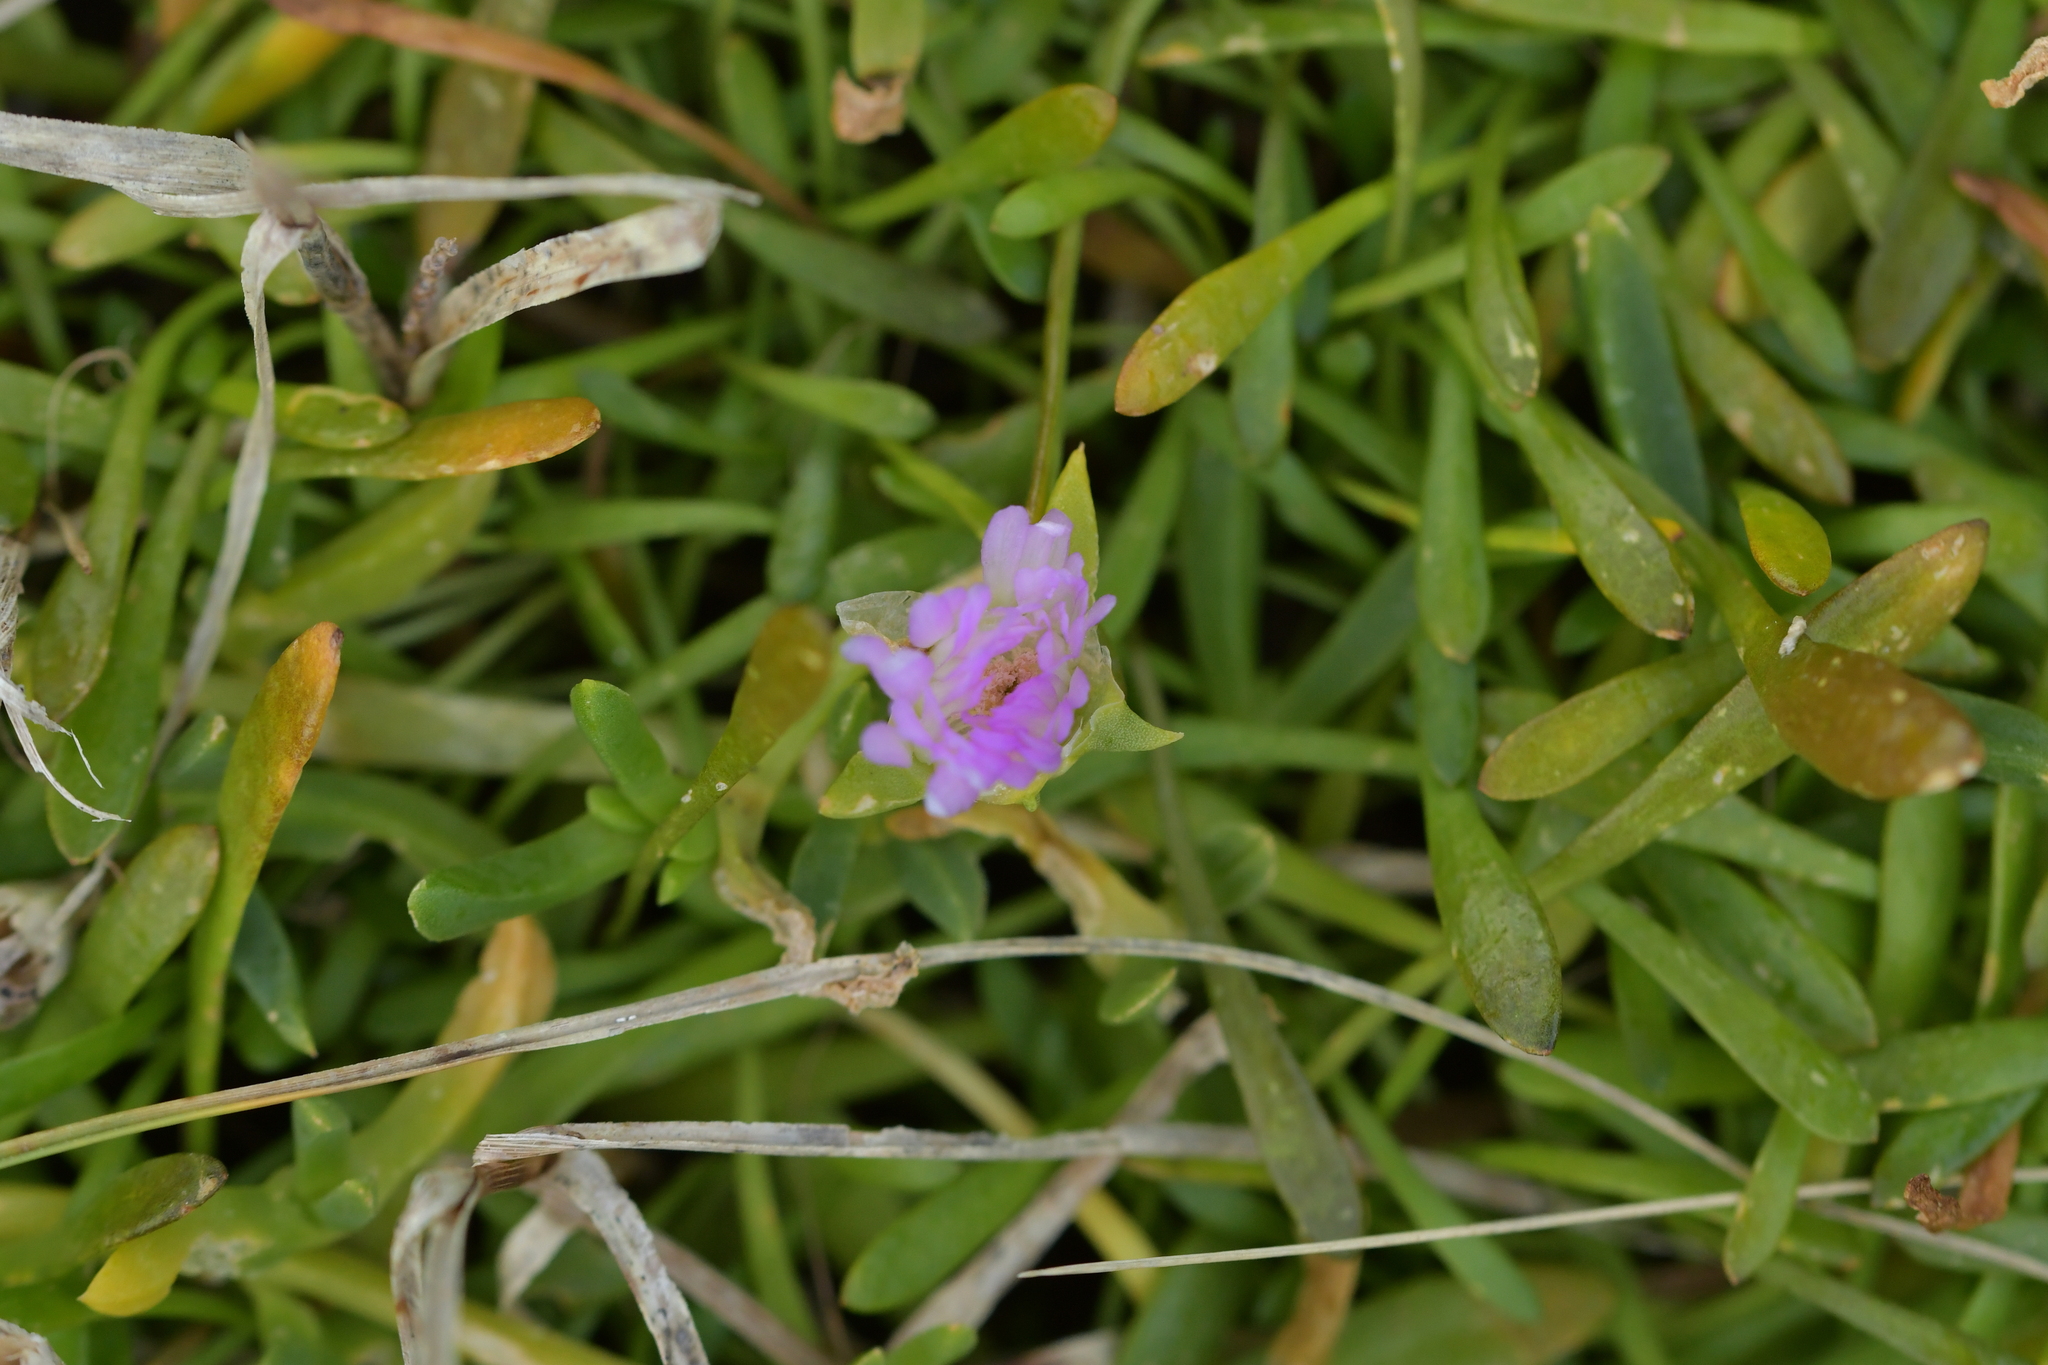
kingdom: Plantae
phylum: Tracheophyta
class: Magnoliopsida
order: Caryophyllales
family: Aizoaceae
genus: Disphyma
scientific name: Disphyma australe
